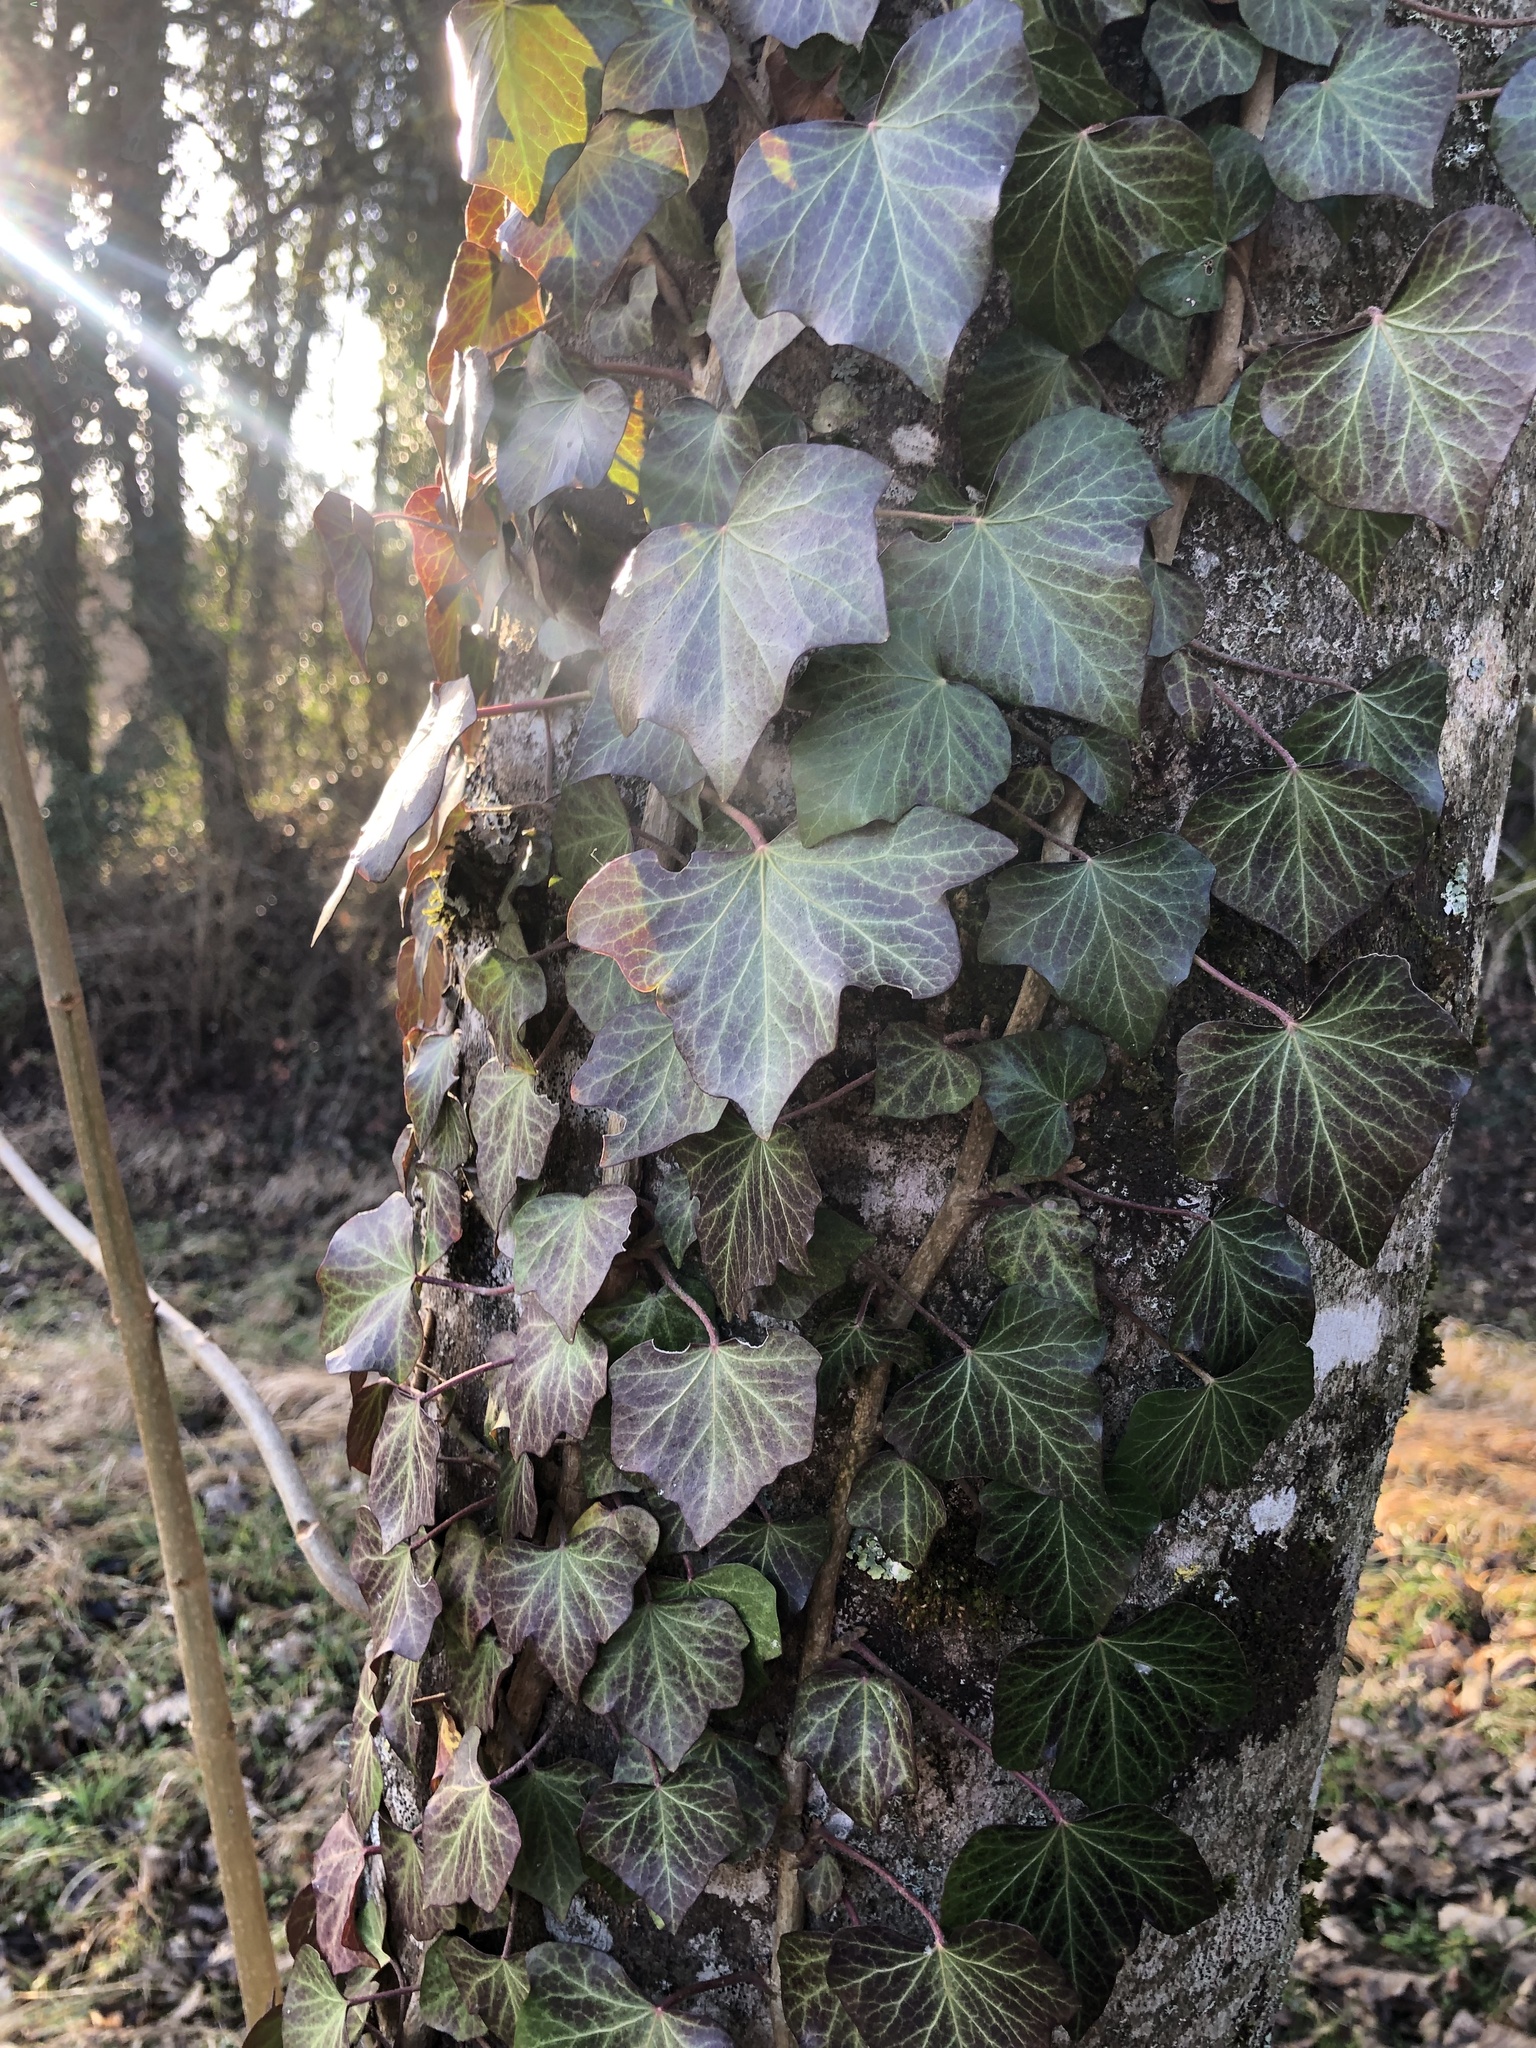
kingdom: Plantae
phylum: Tracheophyta
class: Magnoliopsida
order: Apiales
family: Araliaceae
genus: Hedera
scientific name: Hedera helix
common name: Ivy
